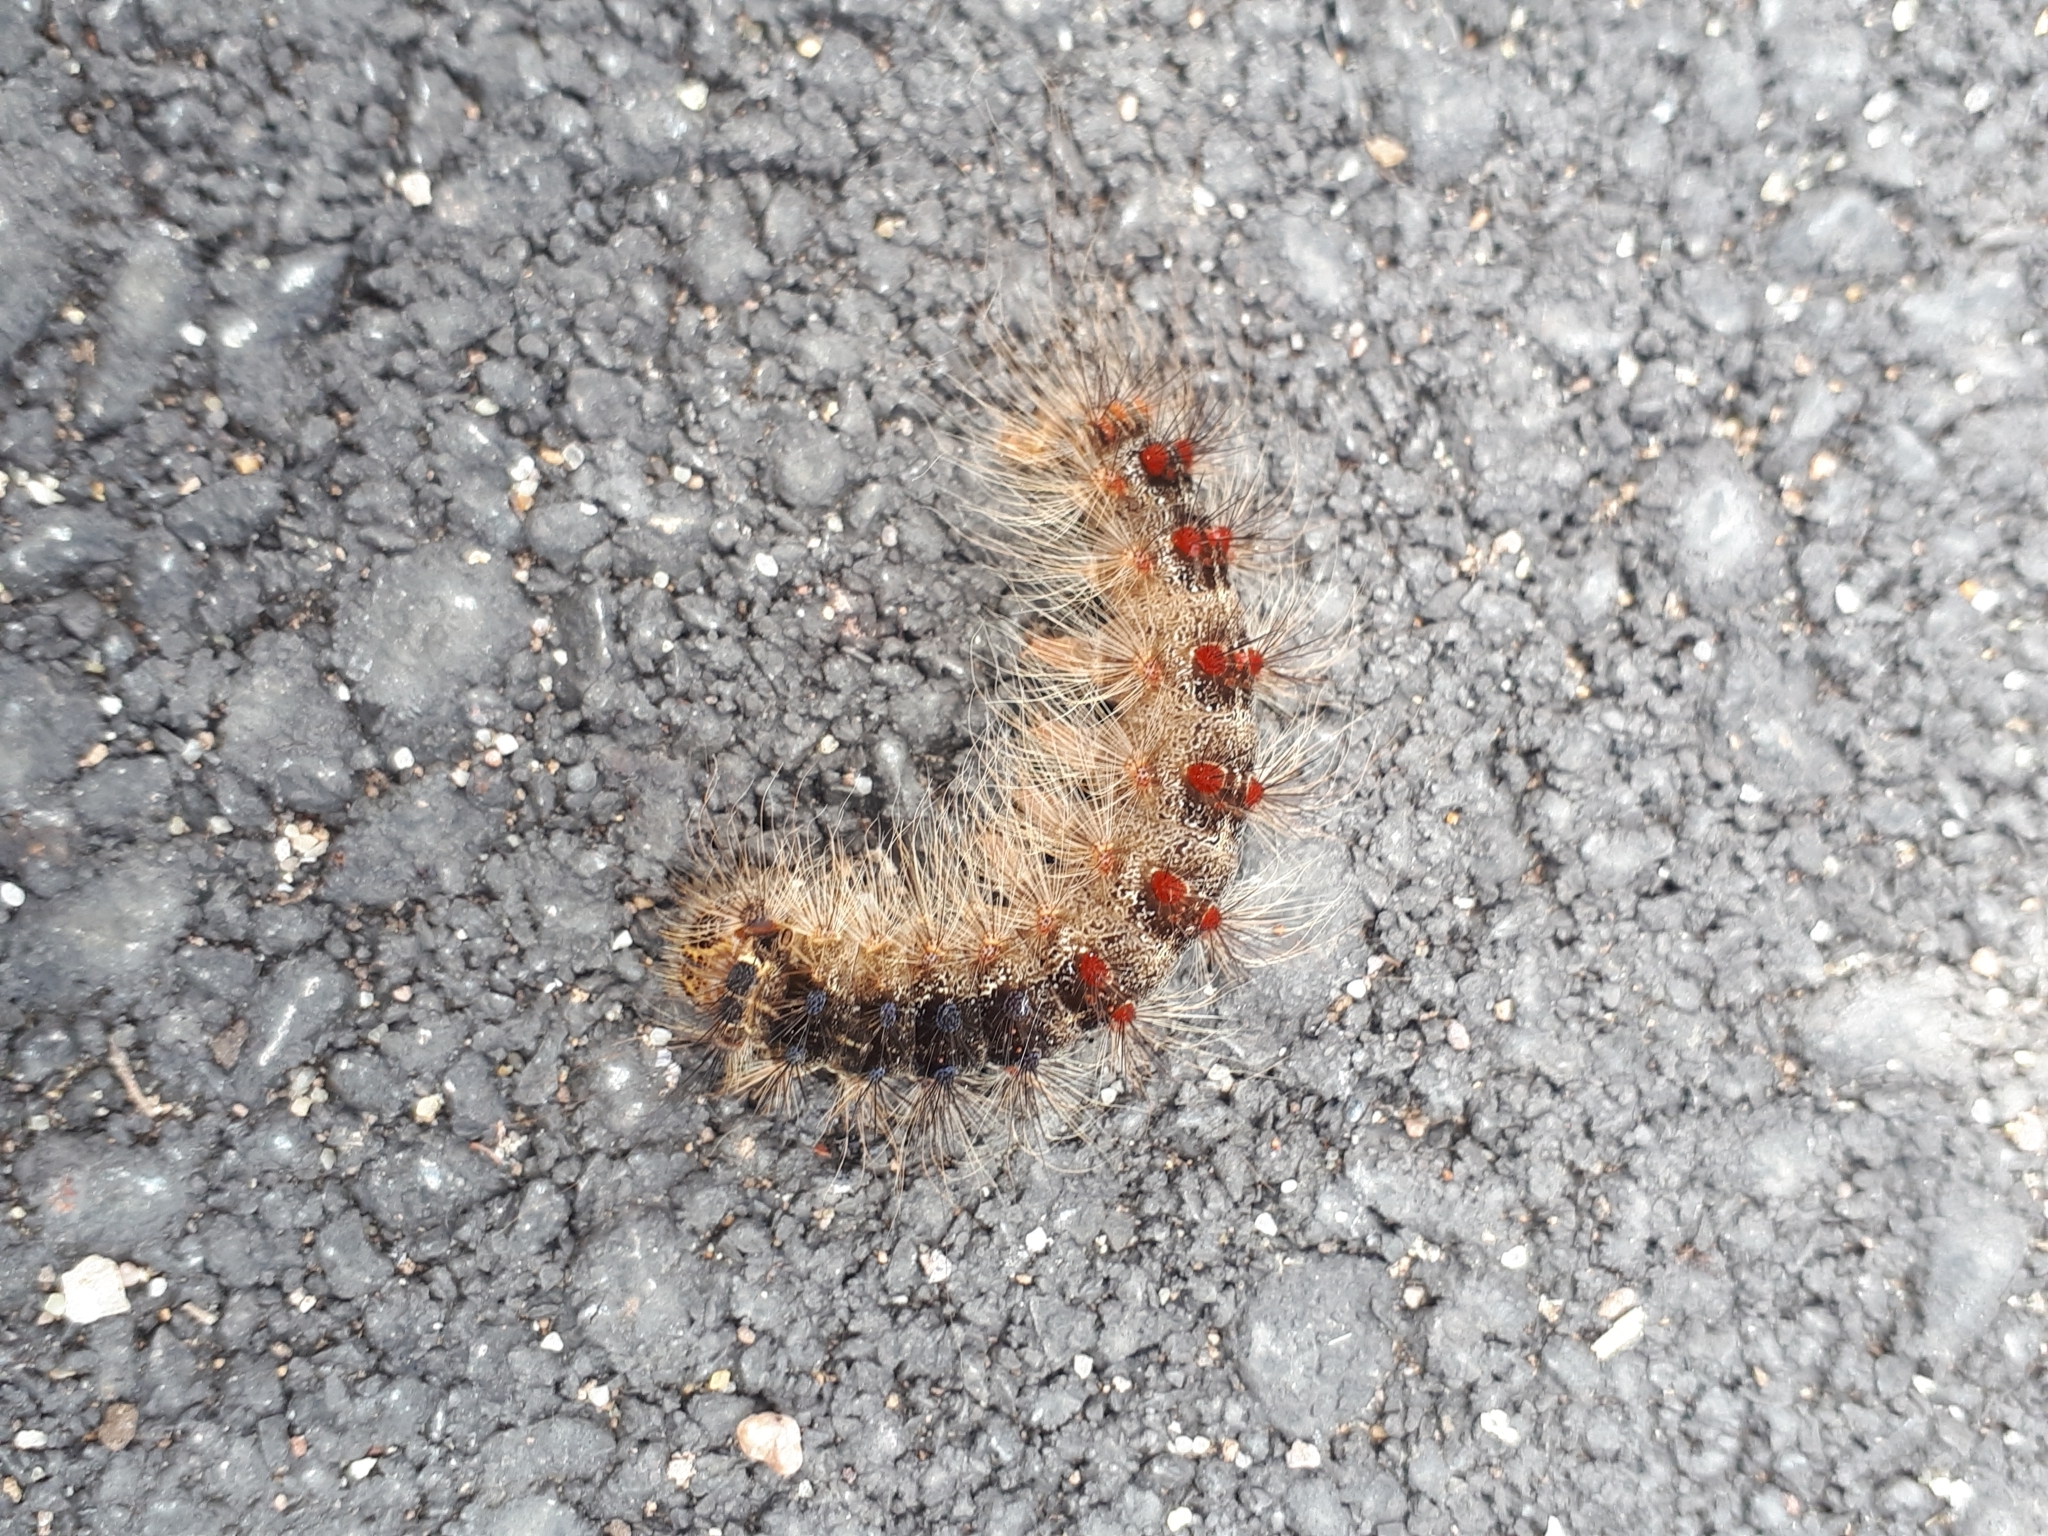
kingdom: Animalia
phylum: Arthropoda
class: Insecta
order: Lepidoptera
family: Erebidae
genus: Lymantria
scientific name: Lymantria dispar
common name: Gypsy moth
